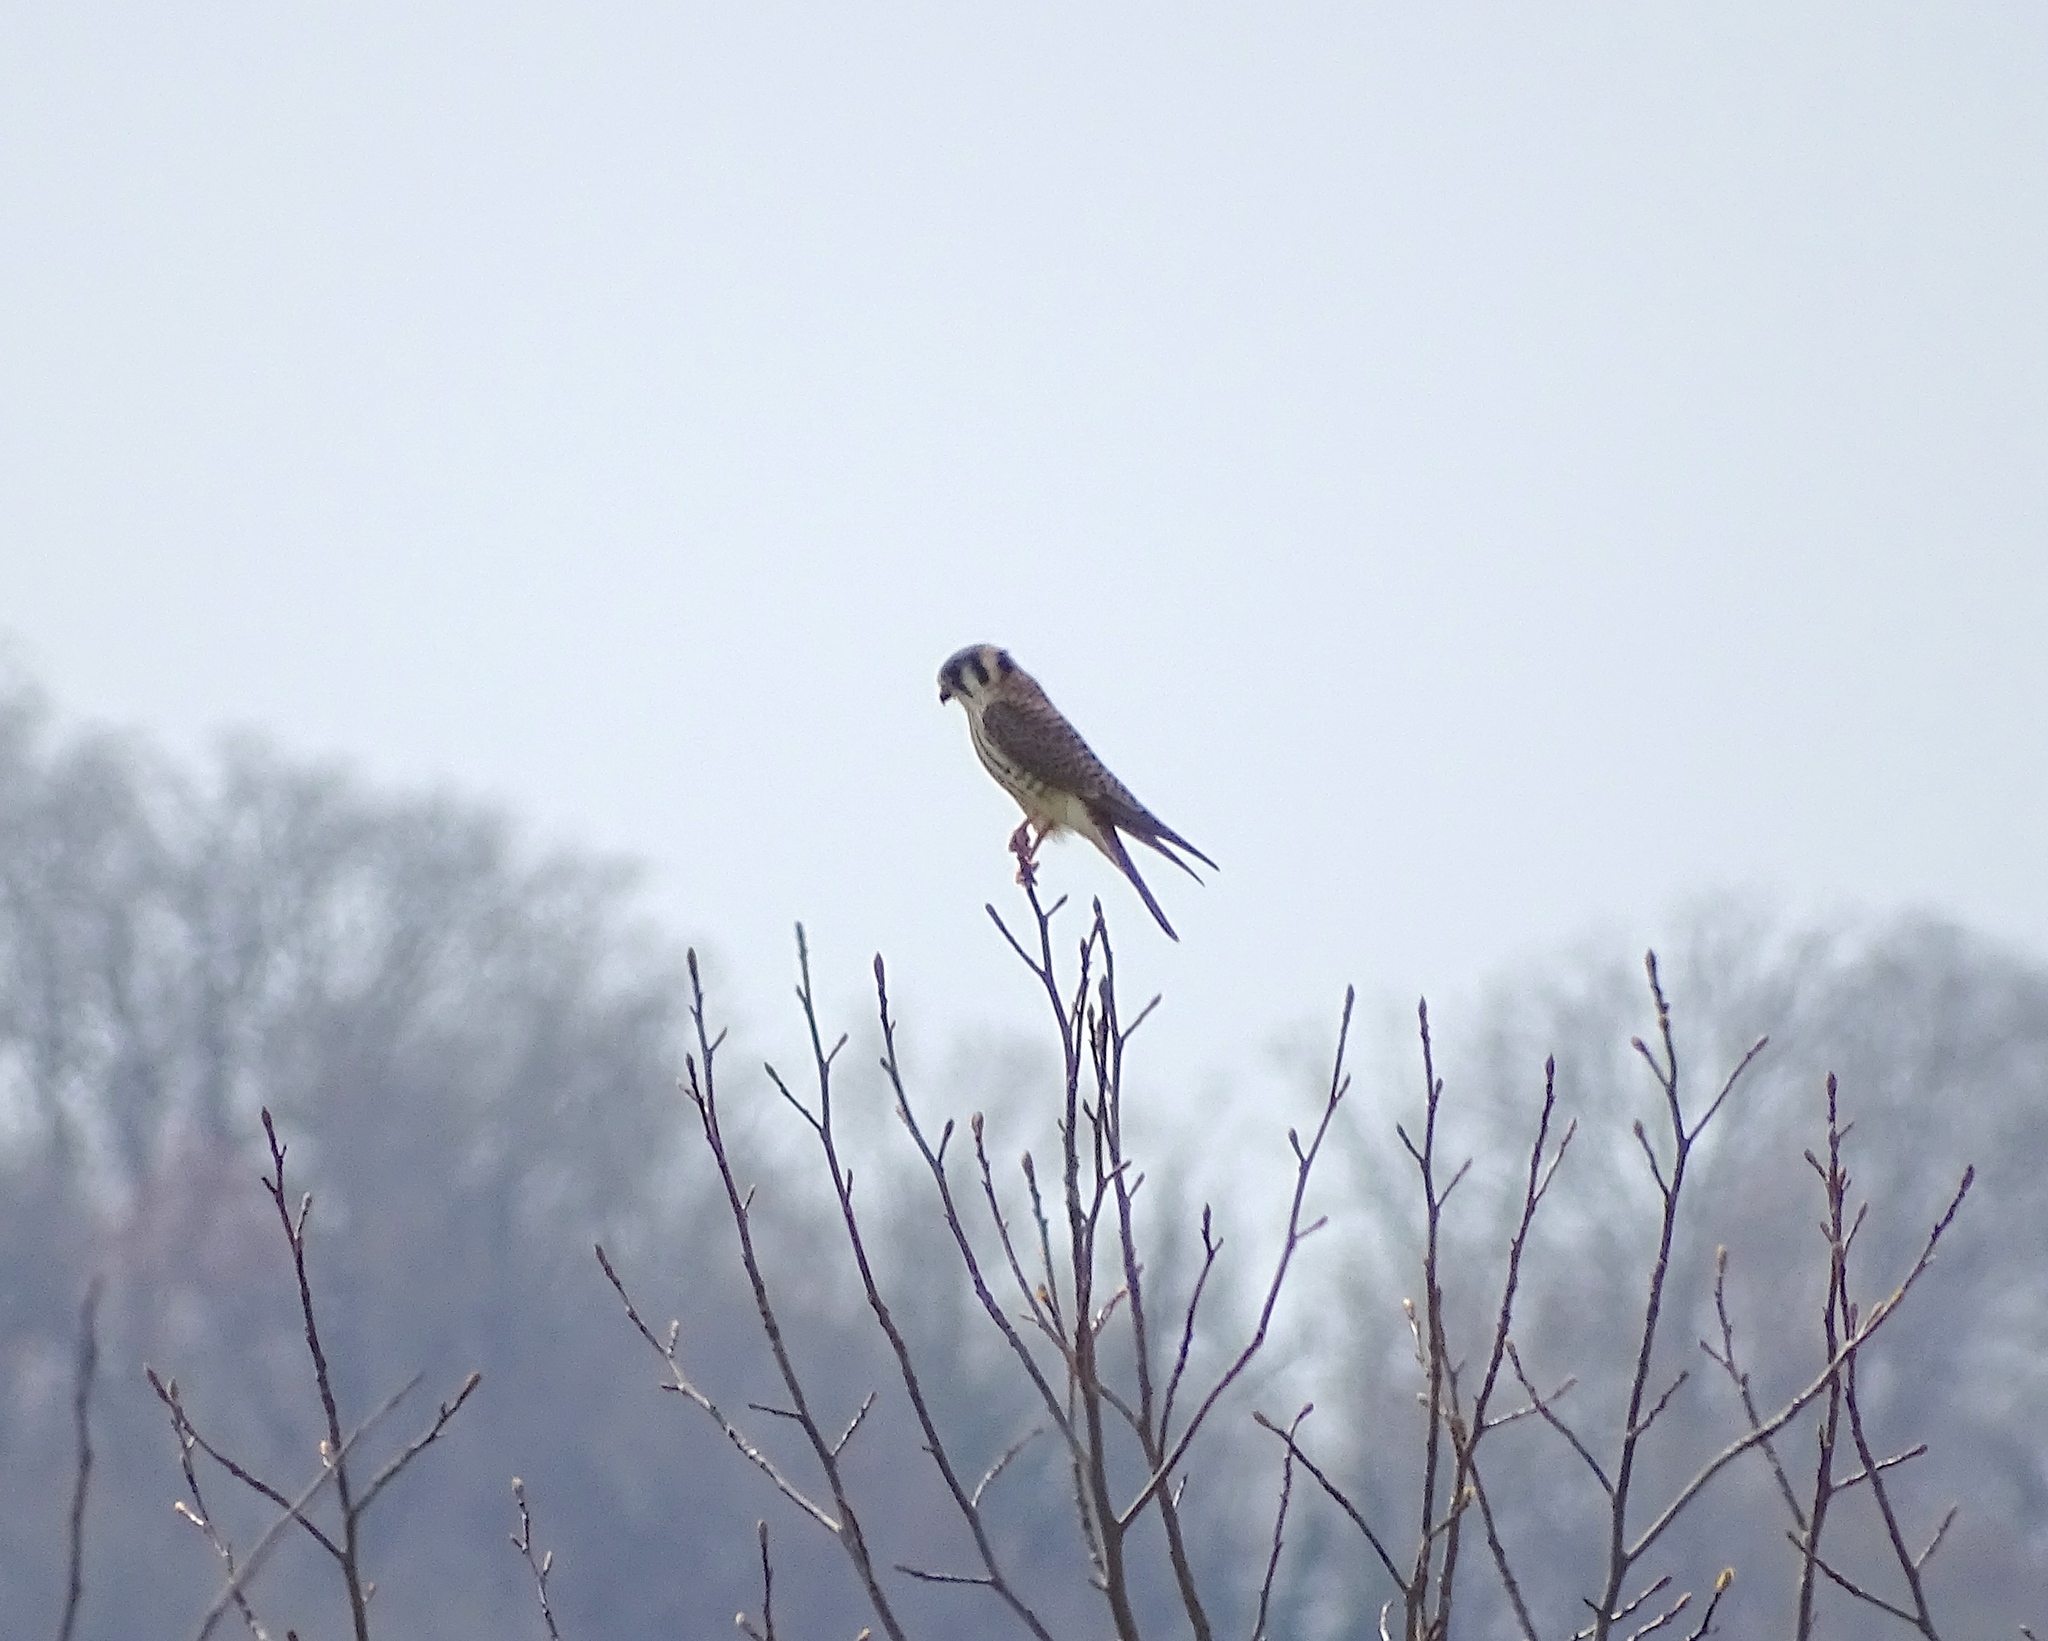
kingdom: Animalia
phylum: Chordata
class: Aves
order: Falconiformes
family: Falconidae
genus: Falco
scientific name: Falco sparverius
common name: American kestrel
